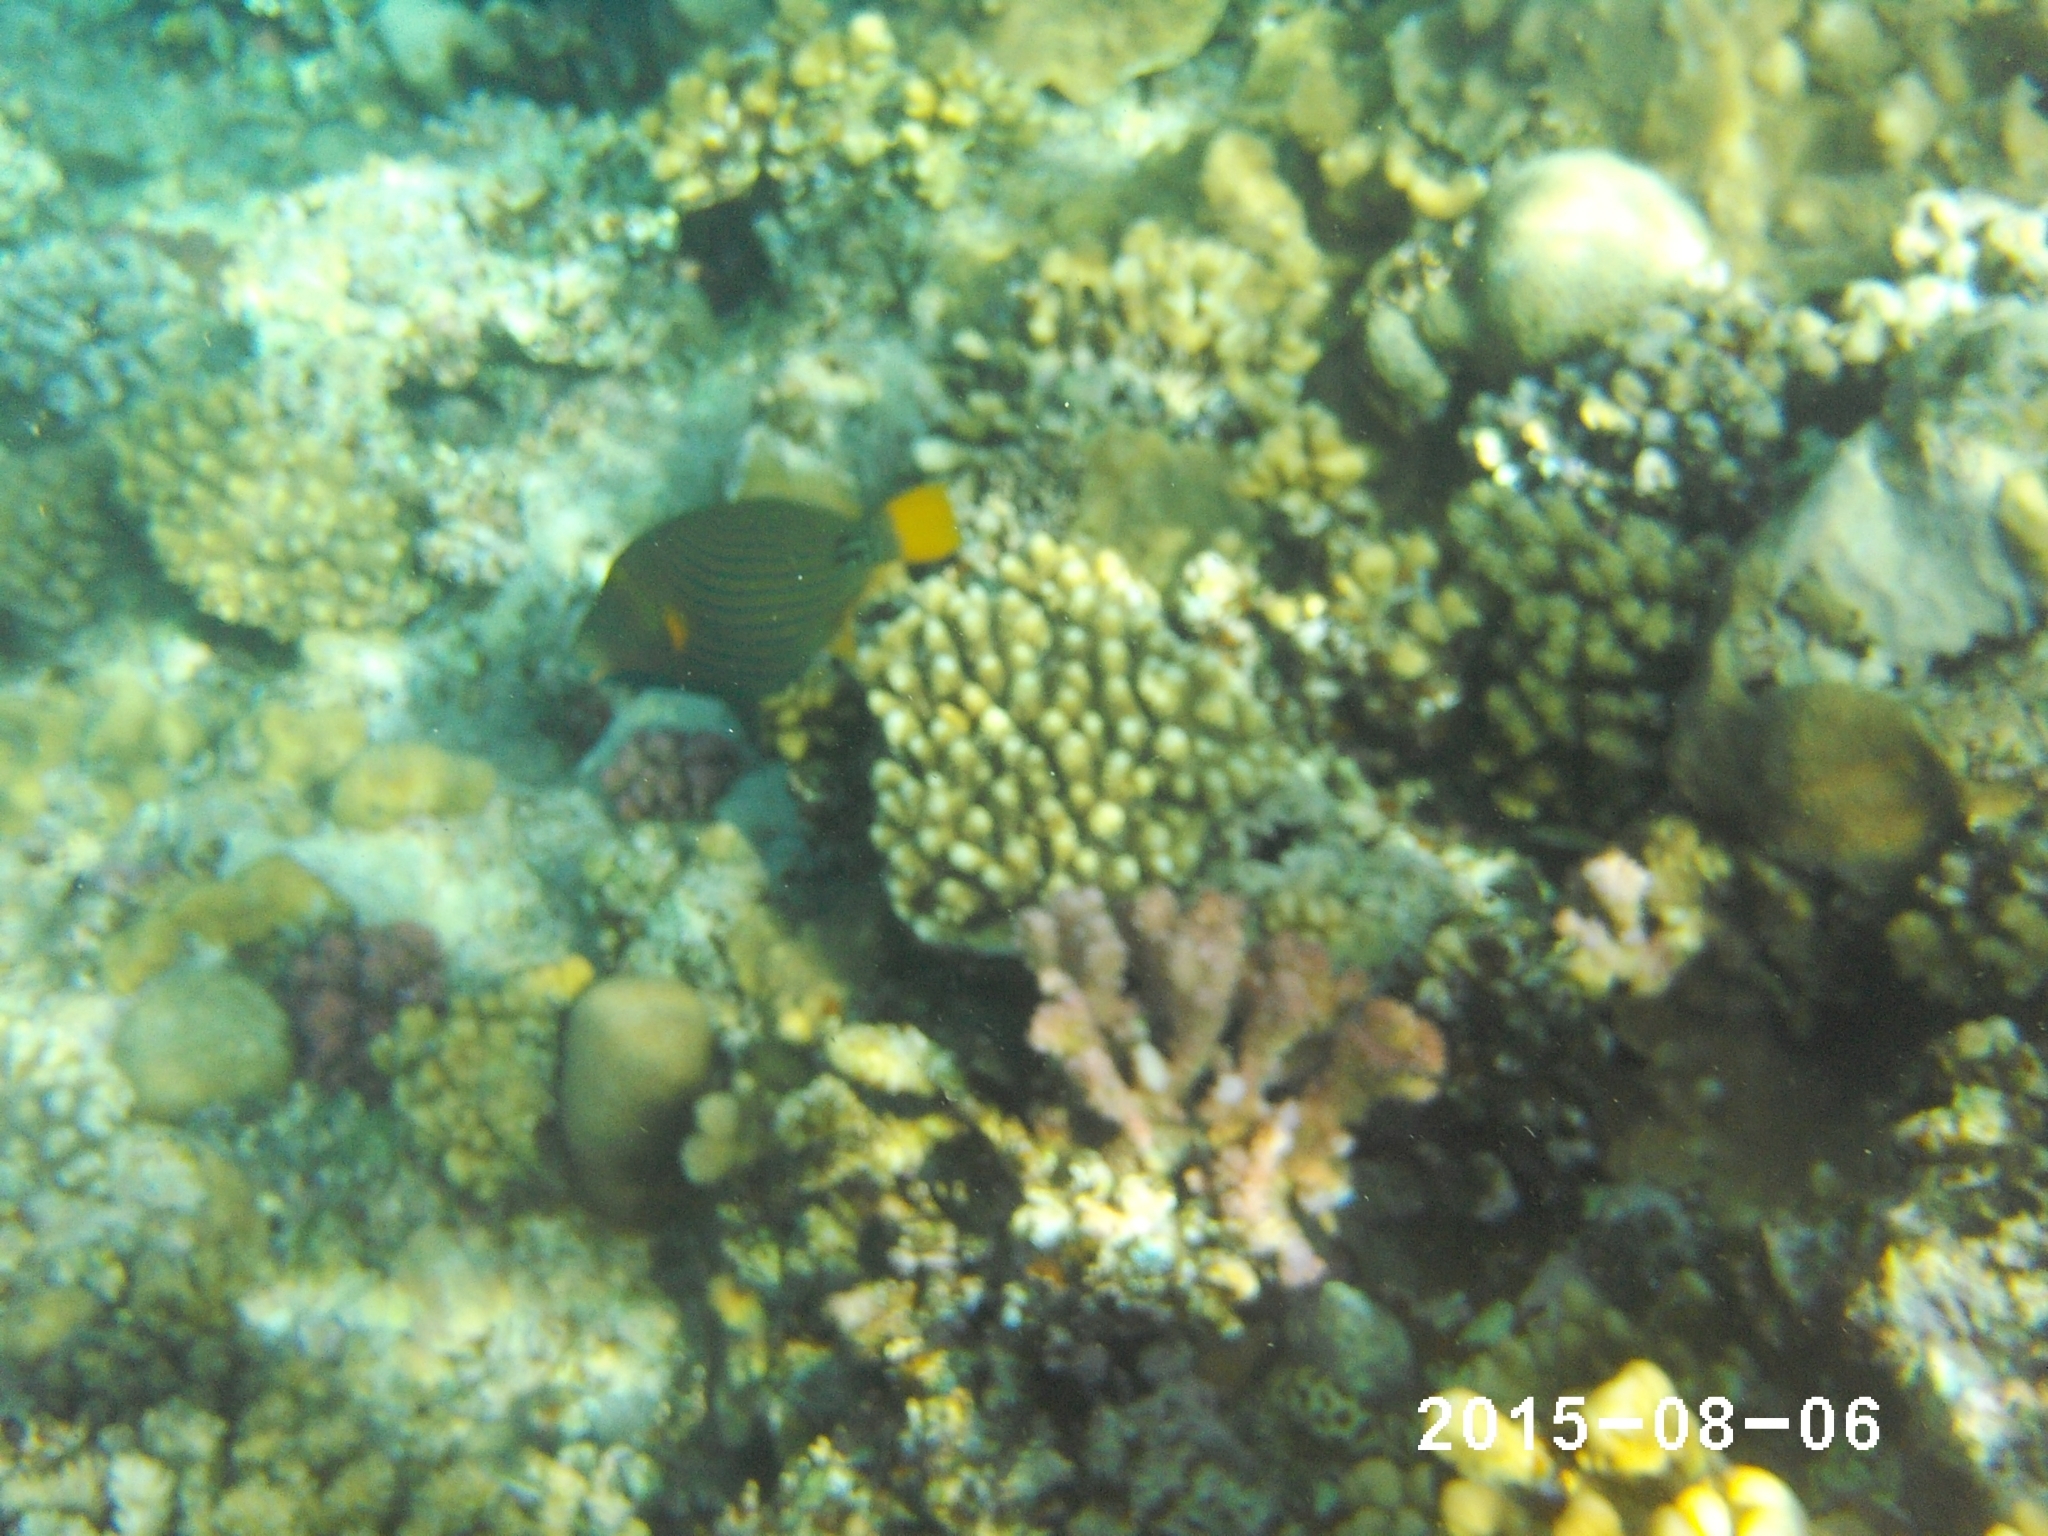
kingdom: Animalia
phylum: Chordata
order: Tetraodontiformes
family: Balistidae
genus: Balistapus
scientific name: Balistapus undulatus
